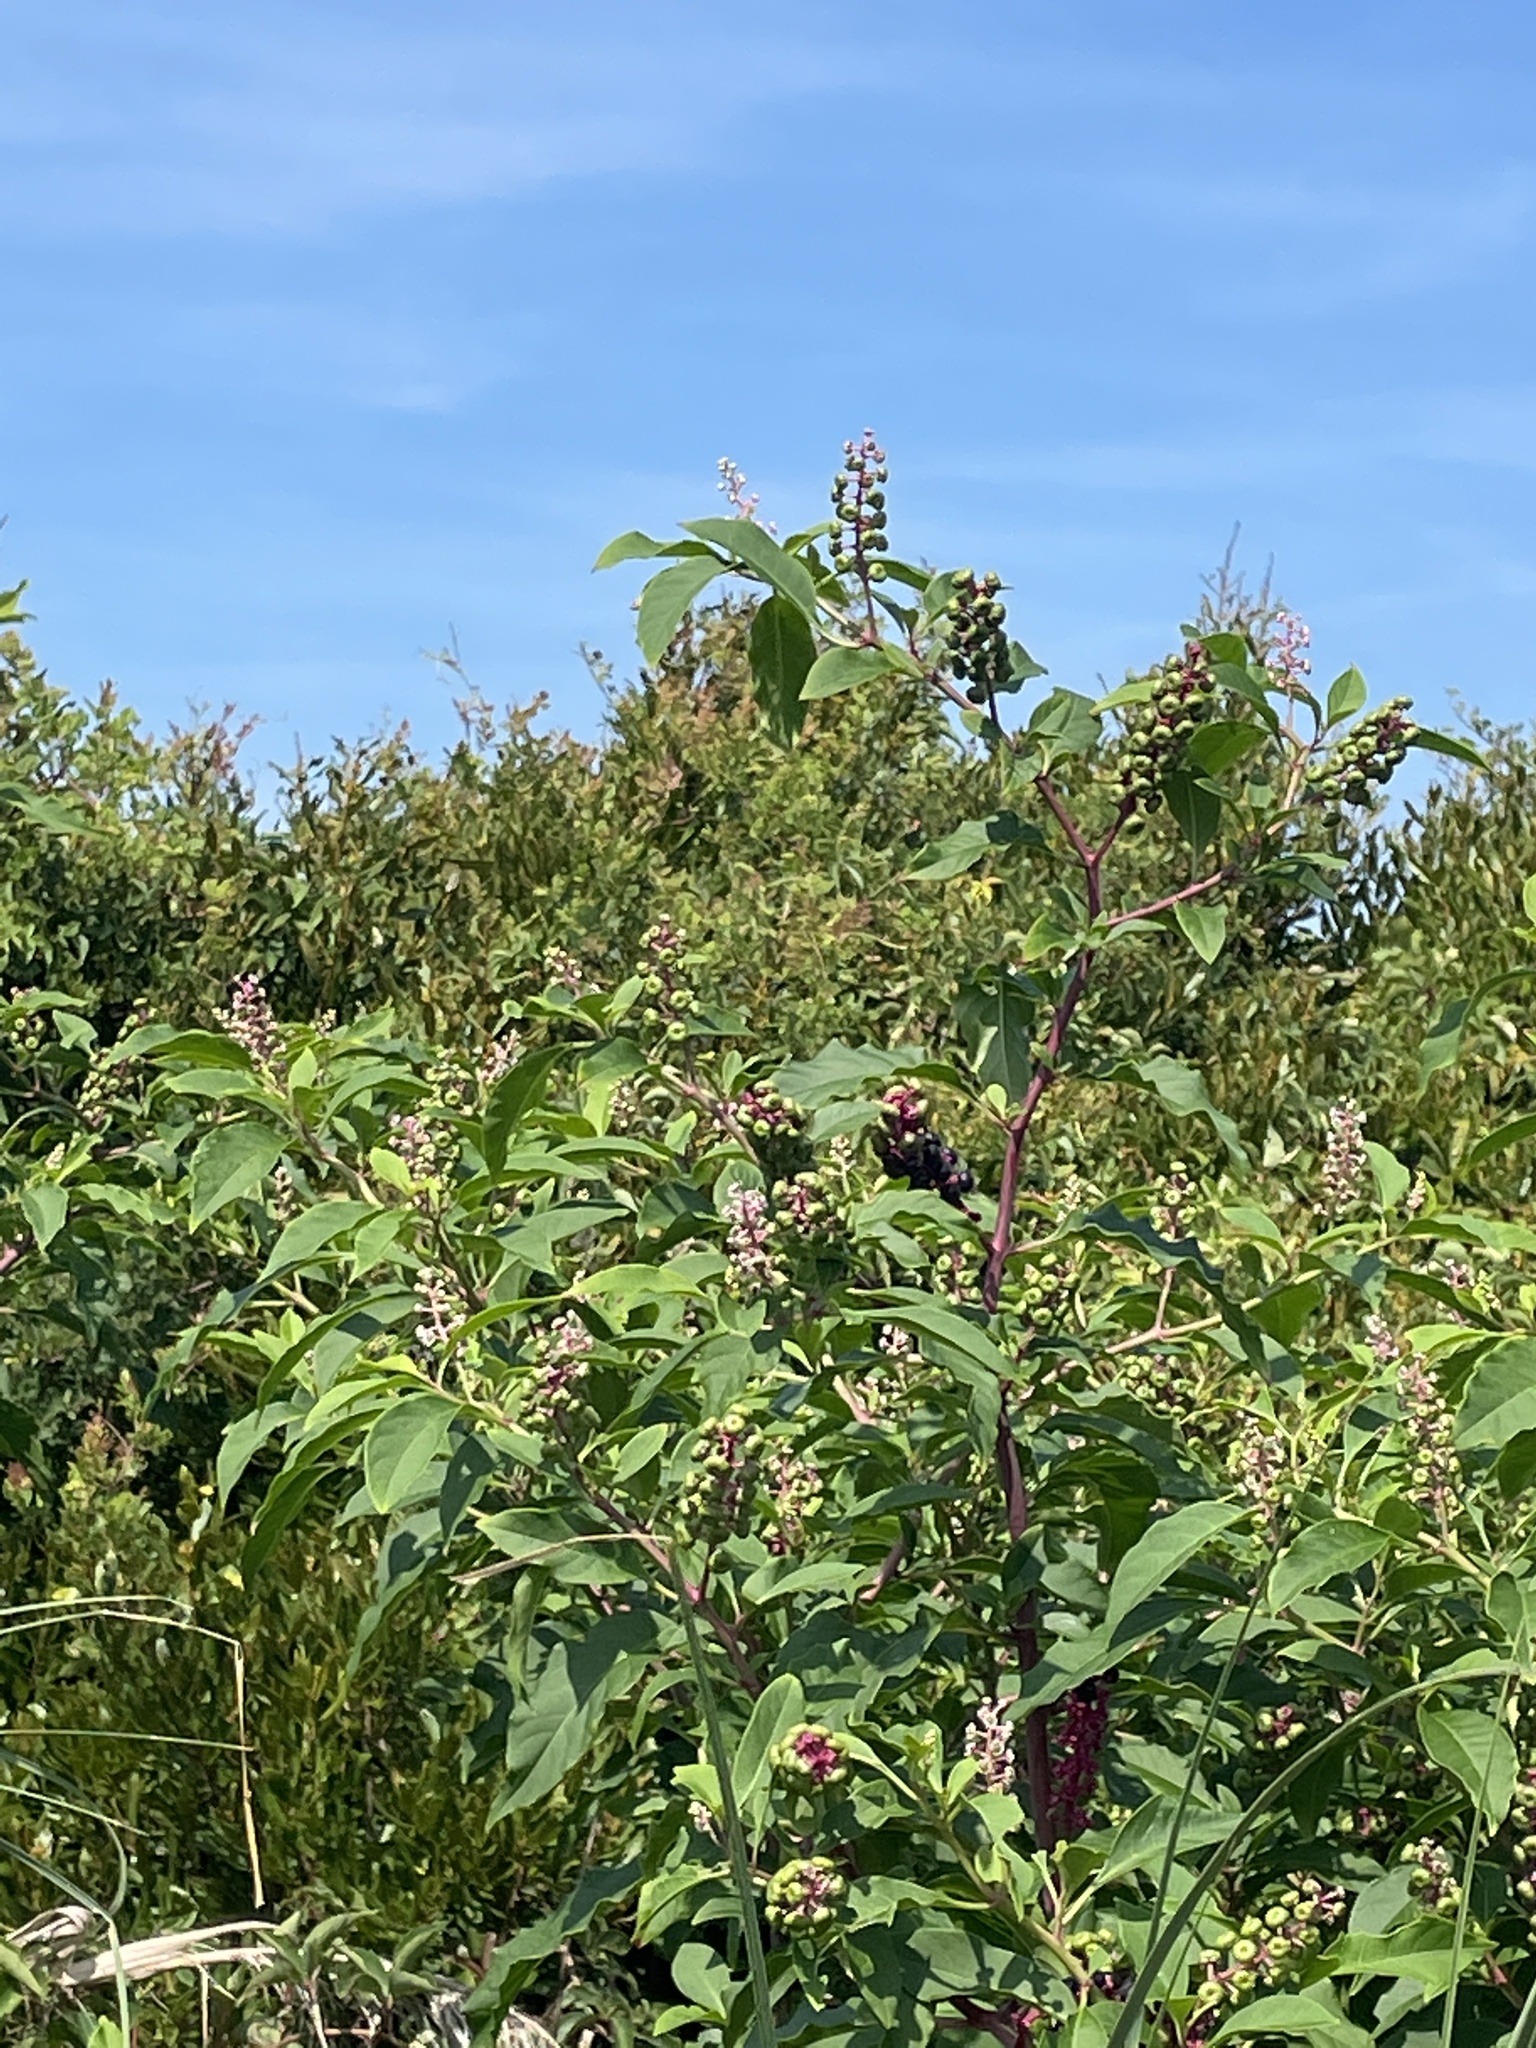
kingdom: Plantae
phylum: Tracheophyta
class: Magnoliopsida
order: Caryophyllales
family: Phytolaccaceae
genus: Phytolacca
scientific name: Phytolacca americana
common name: American pokeweed
